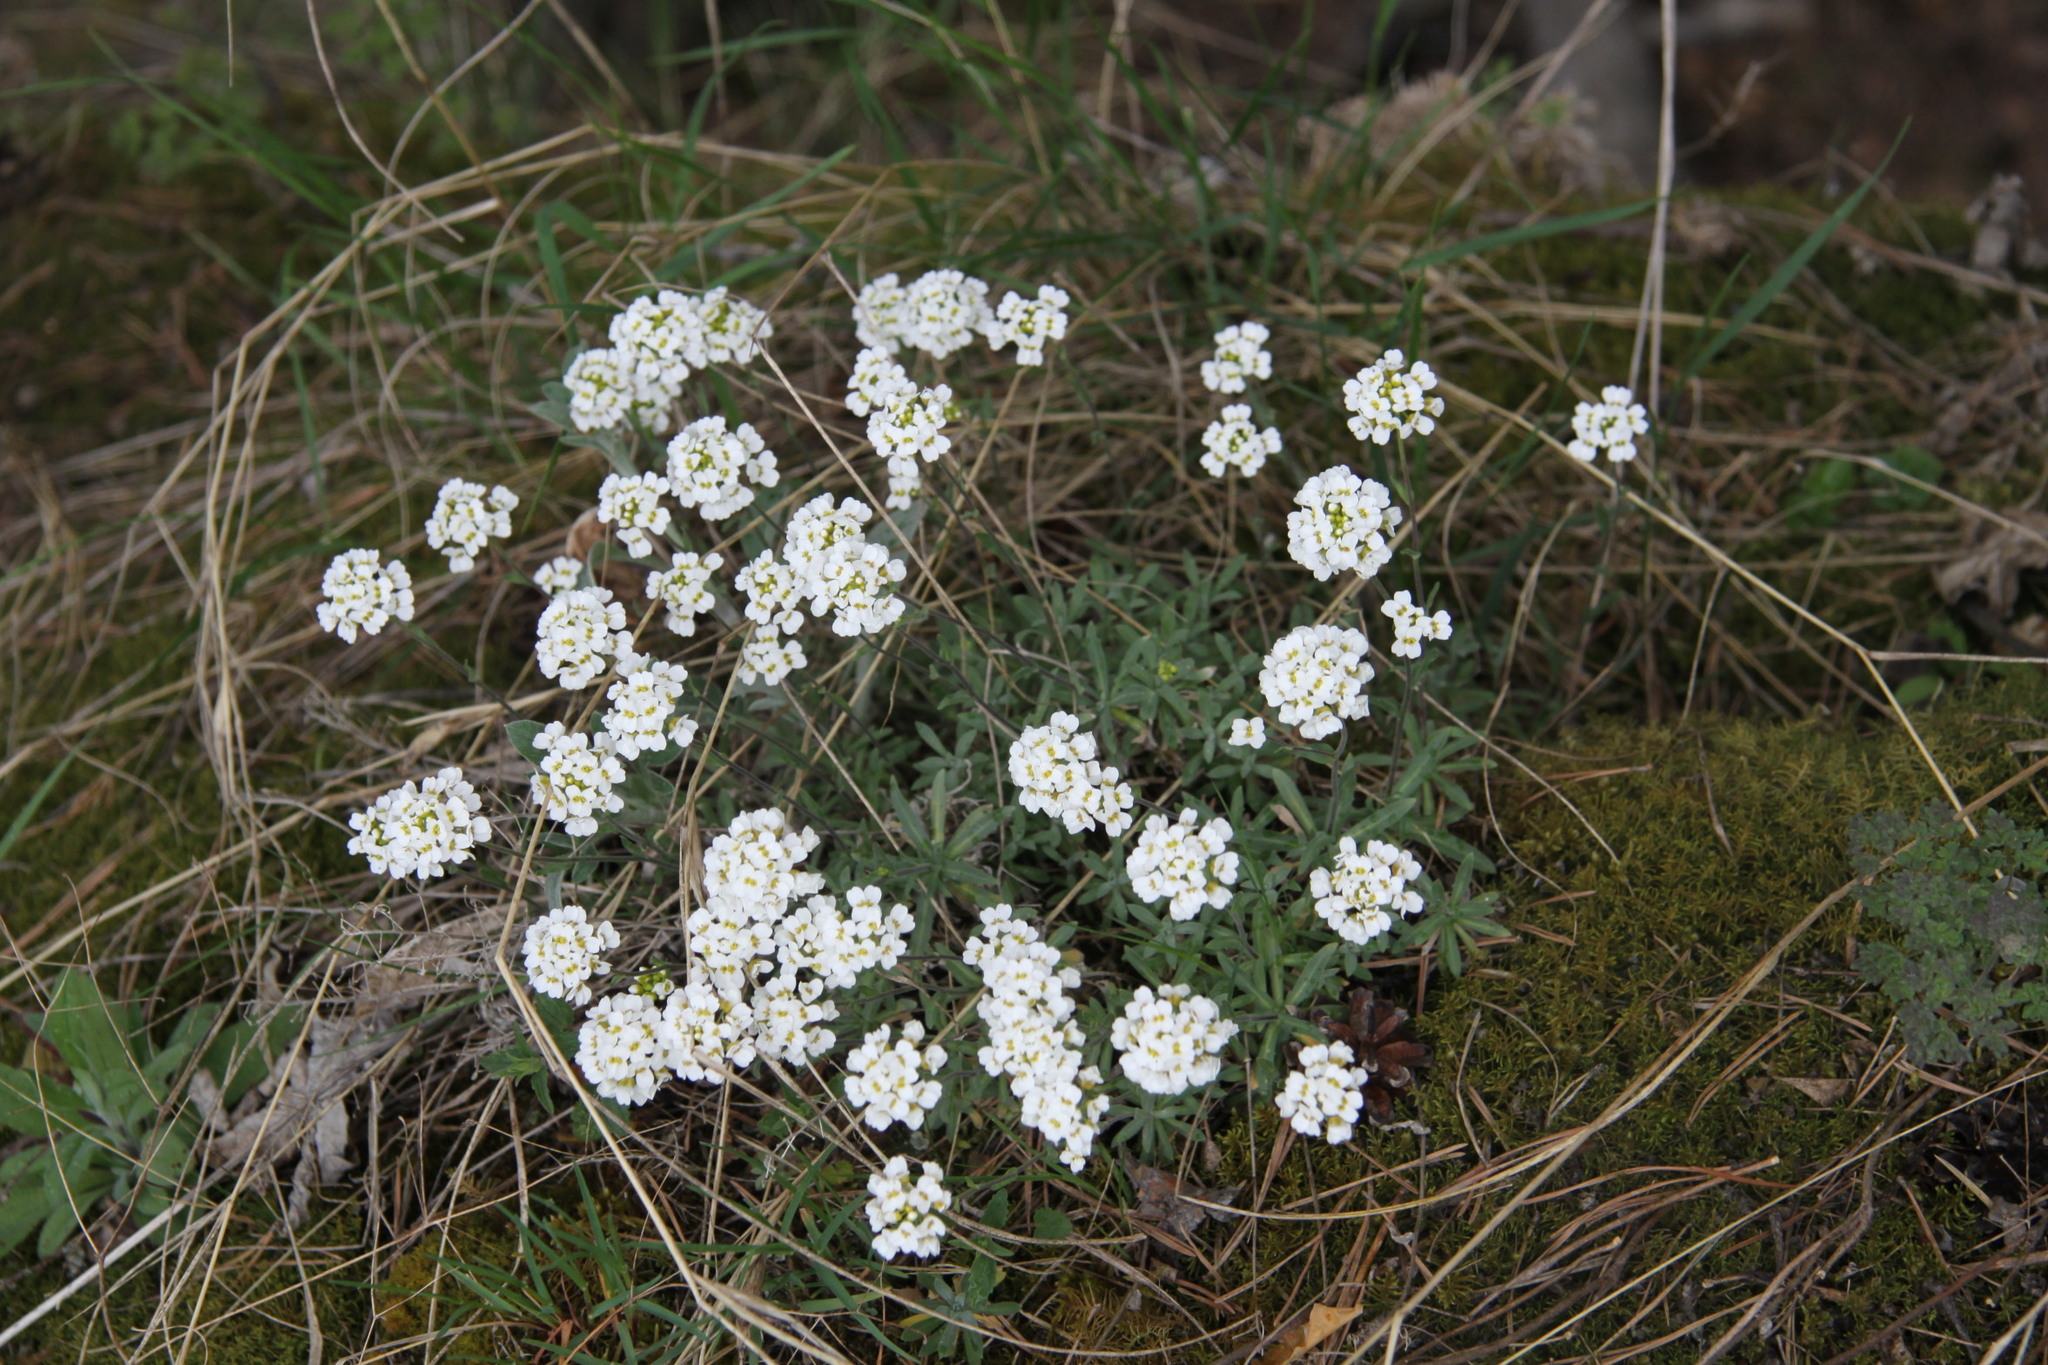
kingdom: Plantae
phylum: Tracheophyta
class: Magnoliopsida
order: Brassicales
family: Brassicaceae
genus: Draba
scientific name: Draba hyperborea
